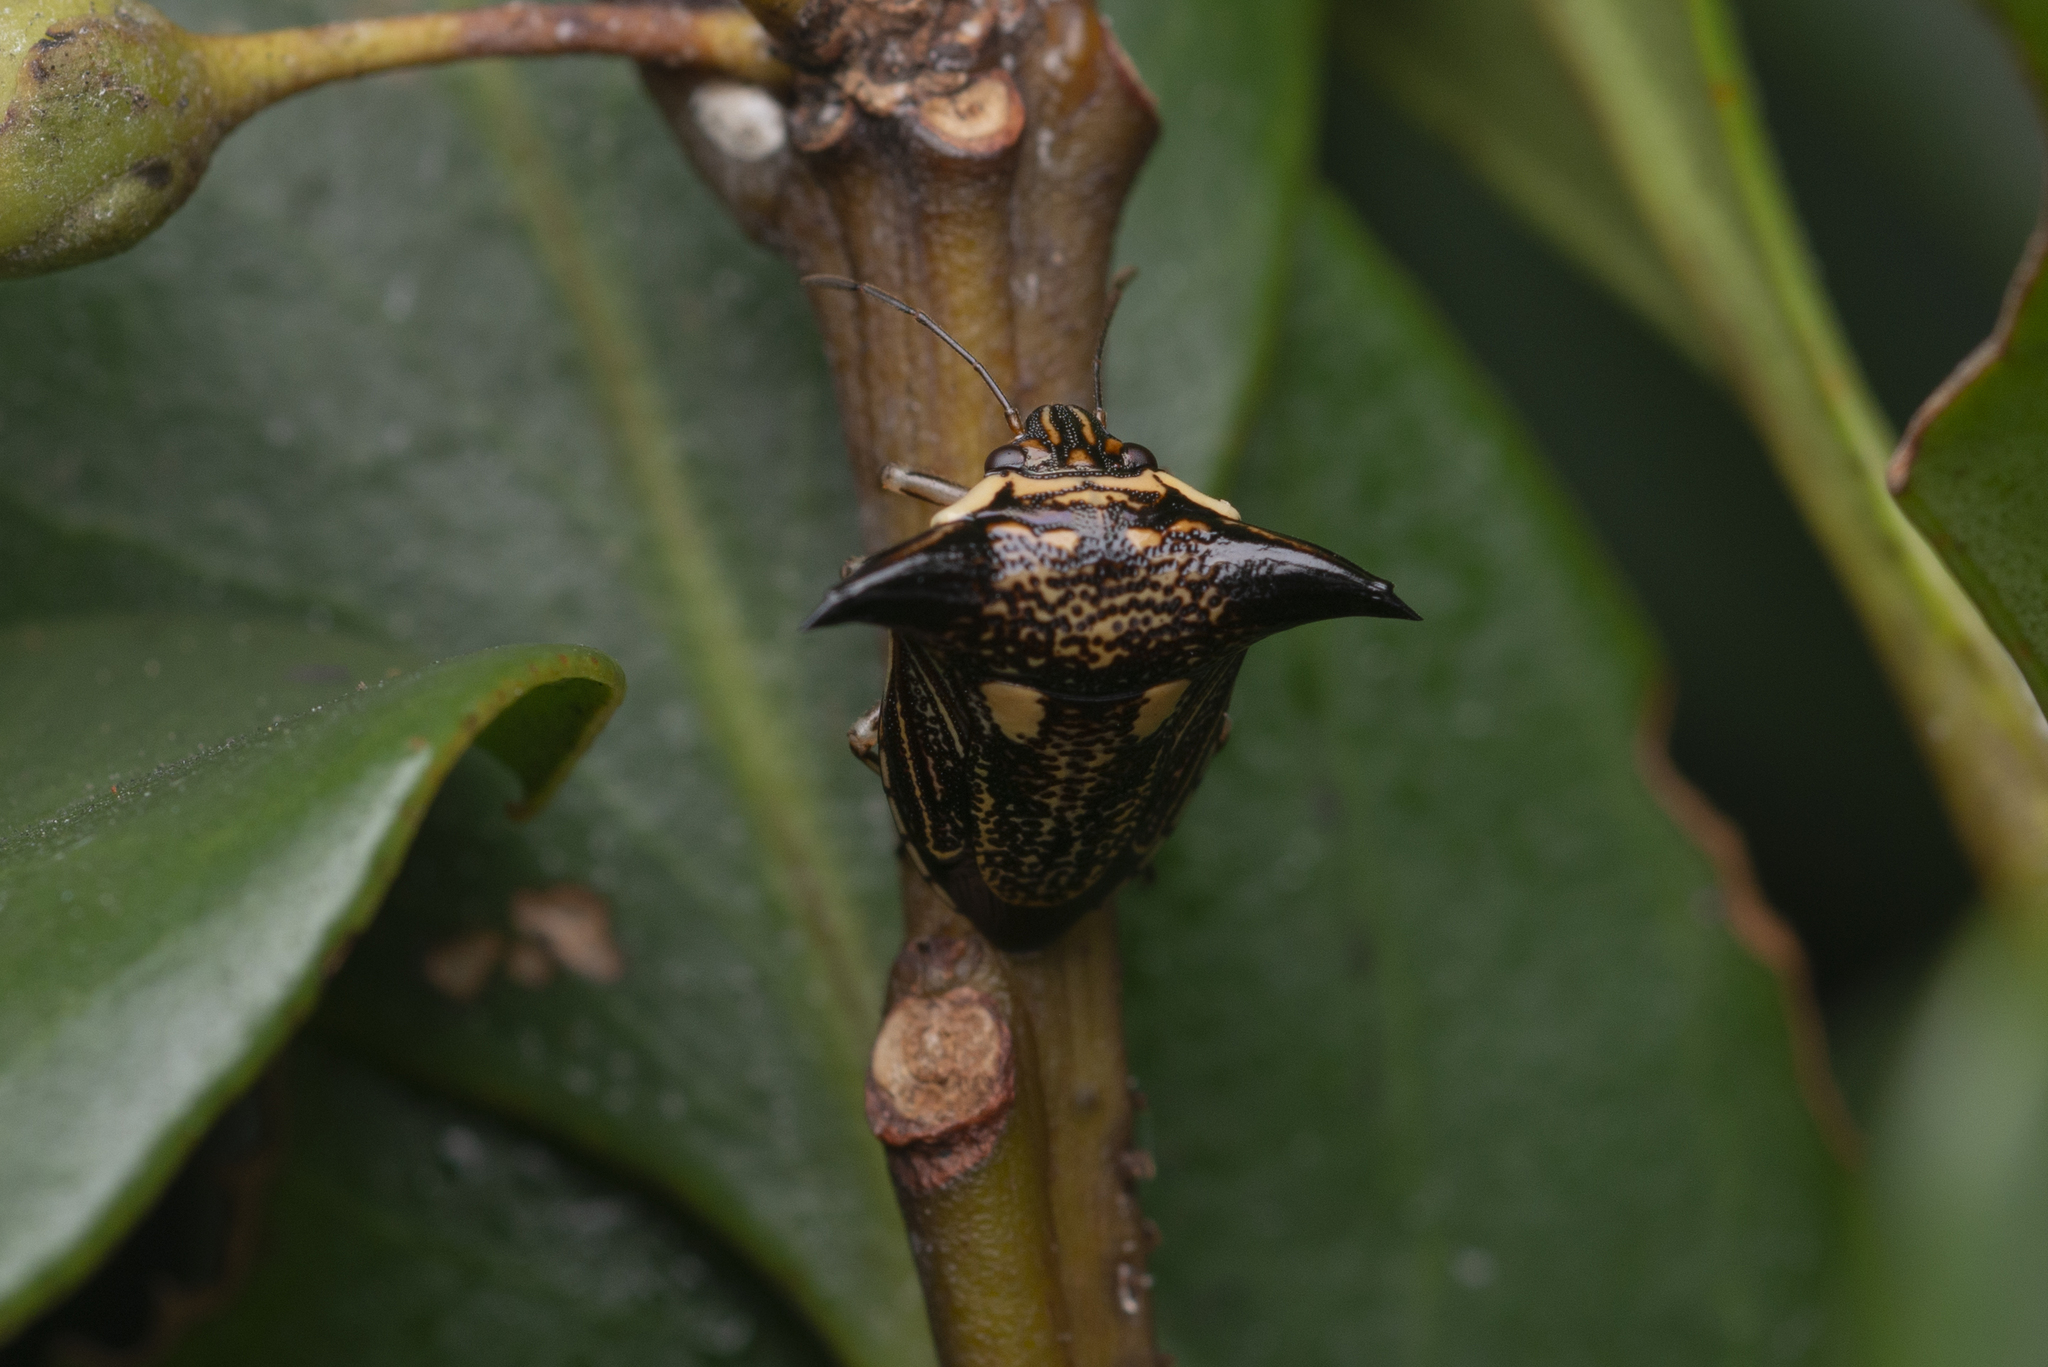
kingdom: Animalia
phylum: Arthropoda
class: Insecta
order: Hemiptera
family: Pentatomidae
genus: Alcimocoris
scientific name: Alcimocoris
